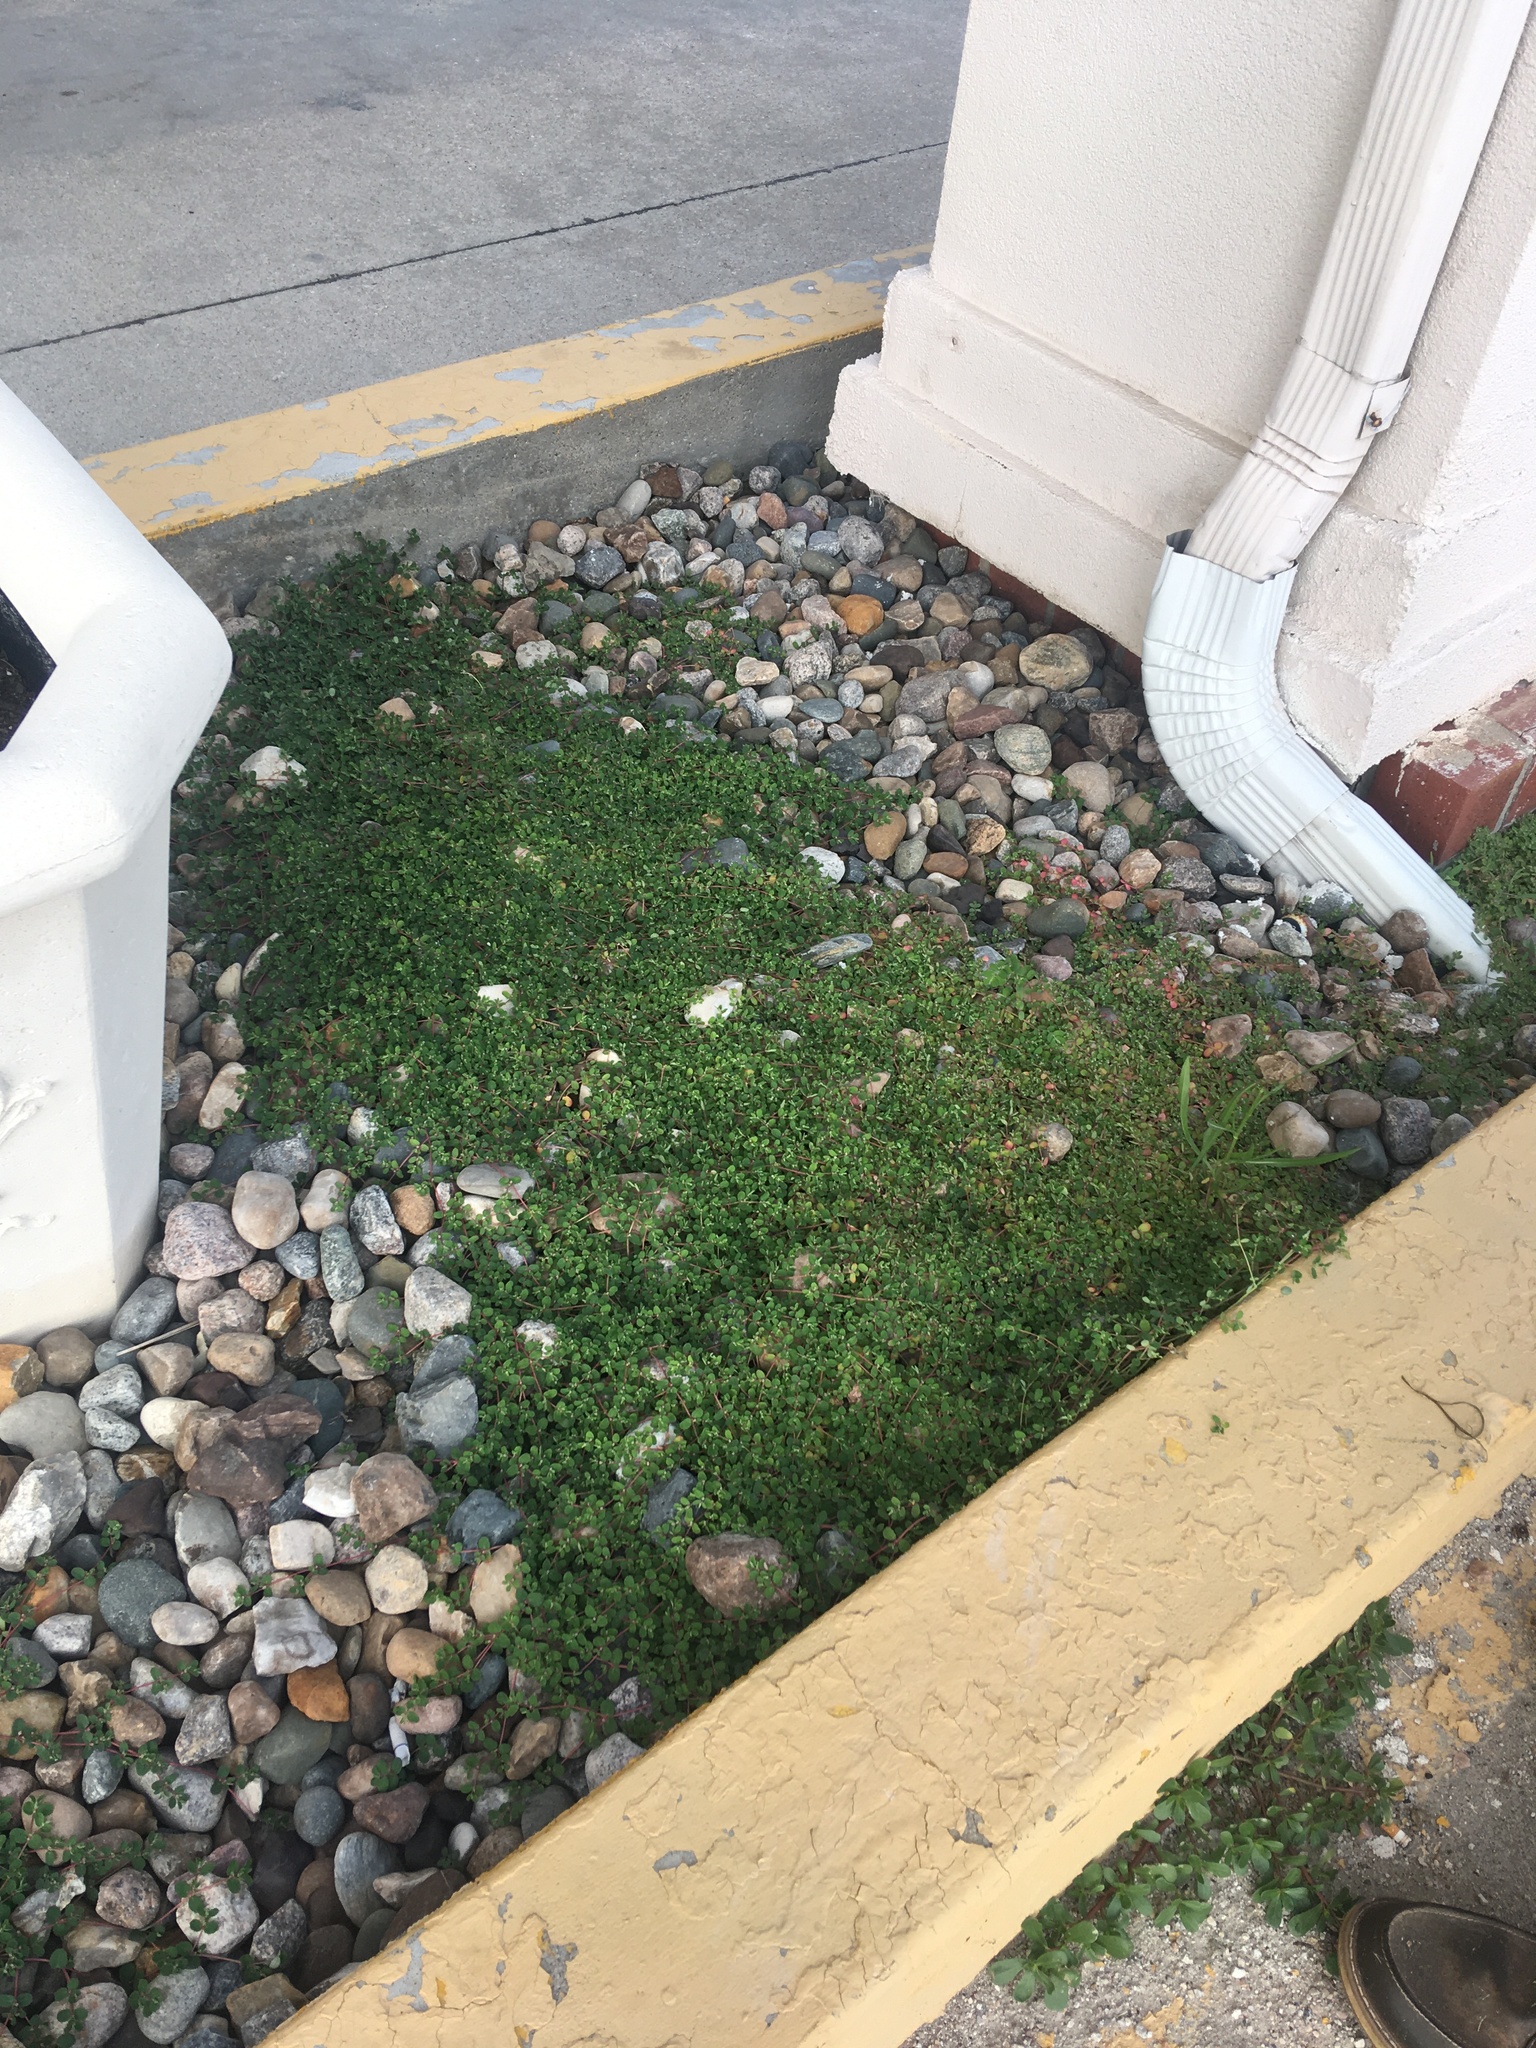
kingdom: Plantae
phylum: Tracheophyta
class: Magnoliopsida
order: Malpighiales
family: Euphorbiaceae
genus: Euphorbia
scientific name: Euphorbia serpens
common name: Matted sandmat
